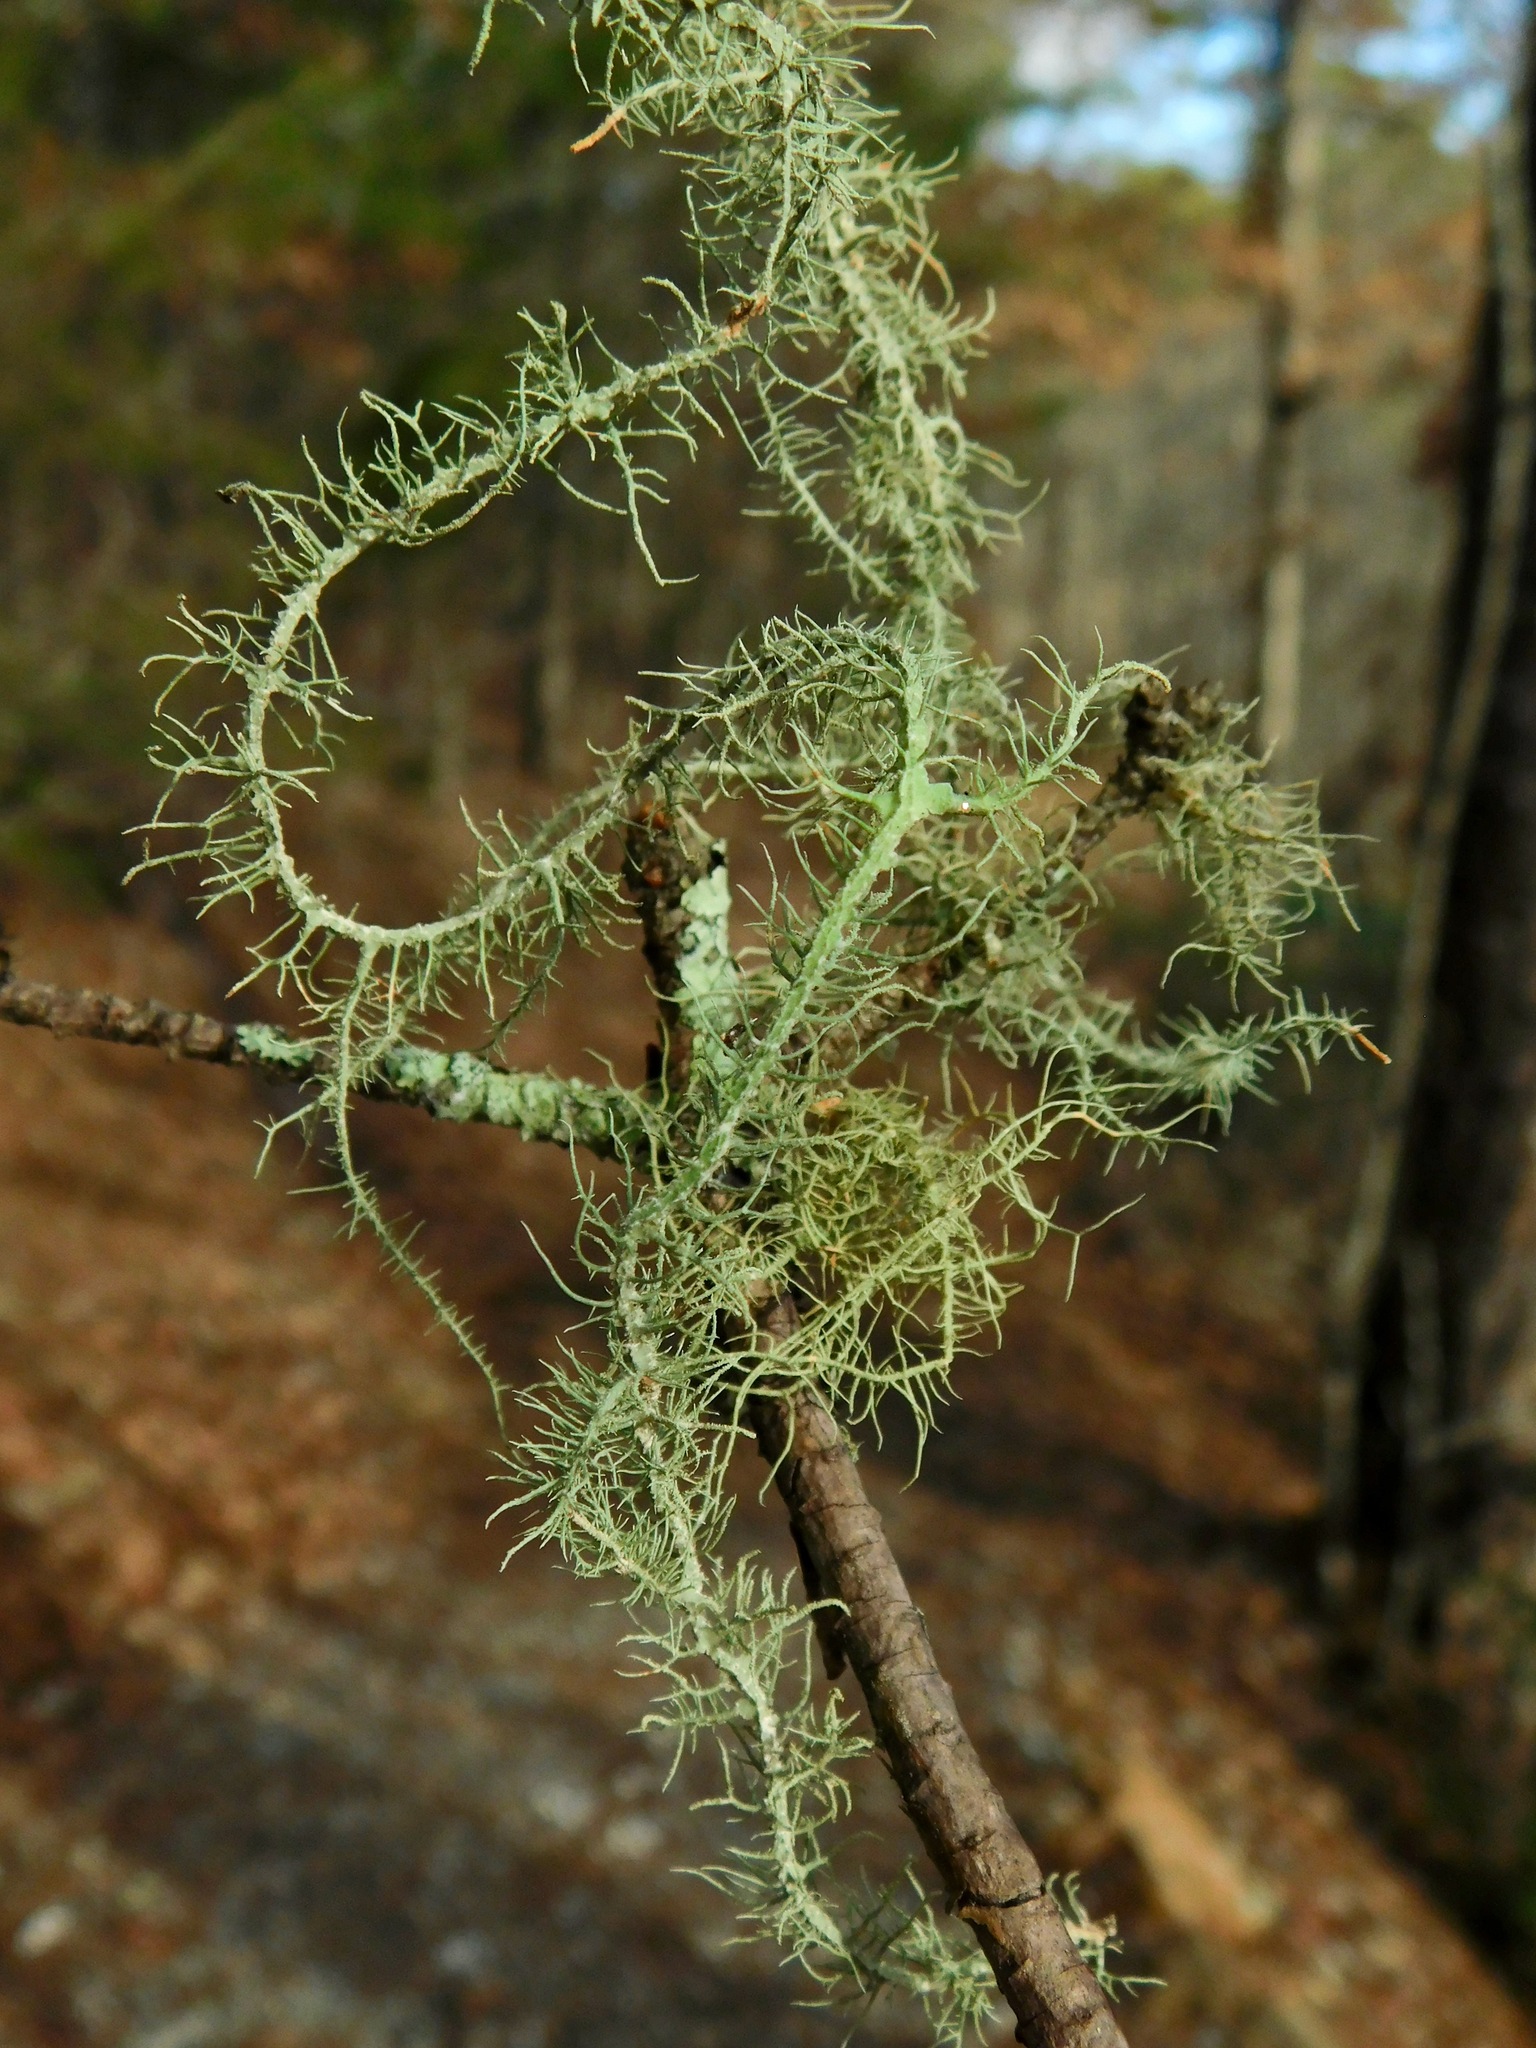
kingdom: Fungi
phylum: Ascomycota
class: Lecanoromycetes
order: Lecanorales
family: Parmeliaceae
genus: Usnea
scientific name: Usnea angulata
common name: Old-man’s beard lichen
